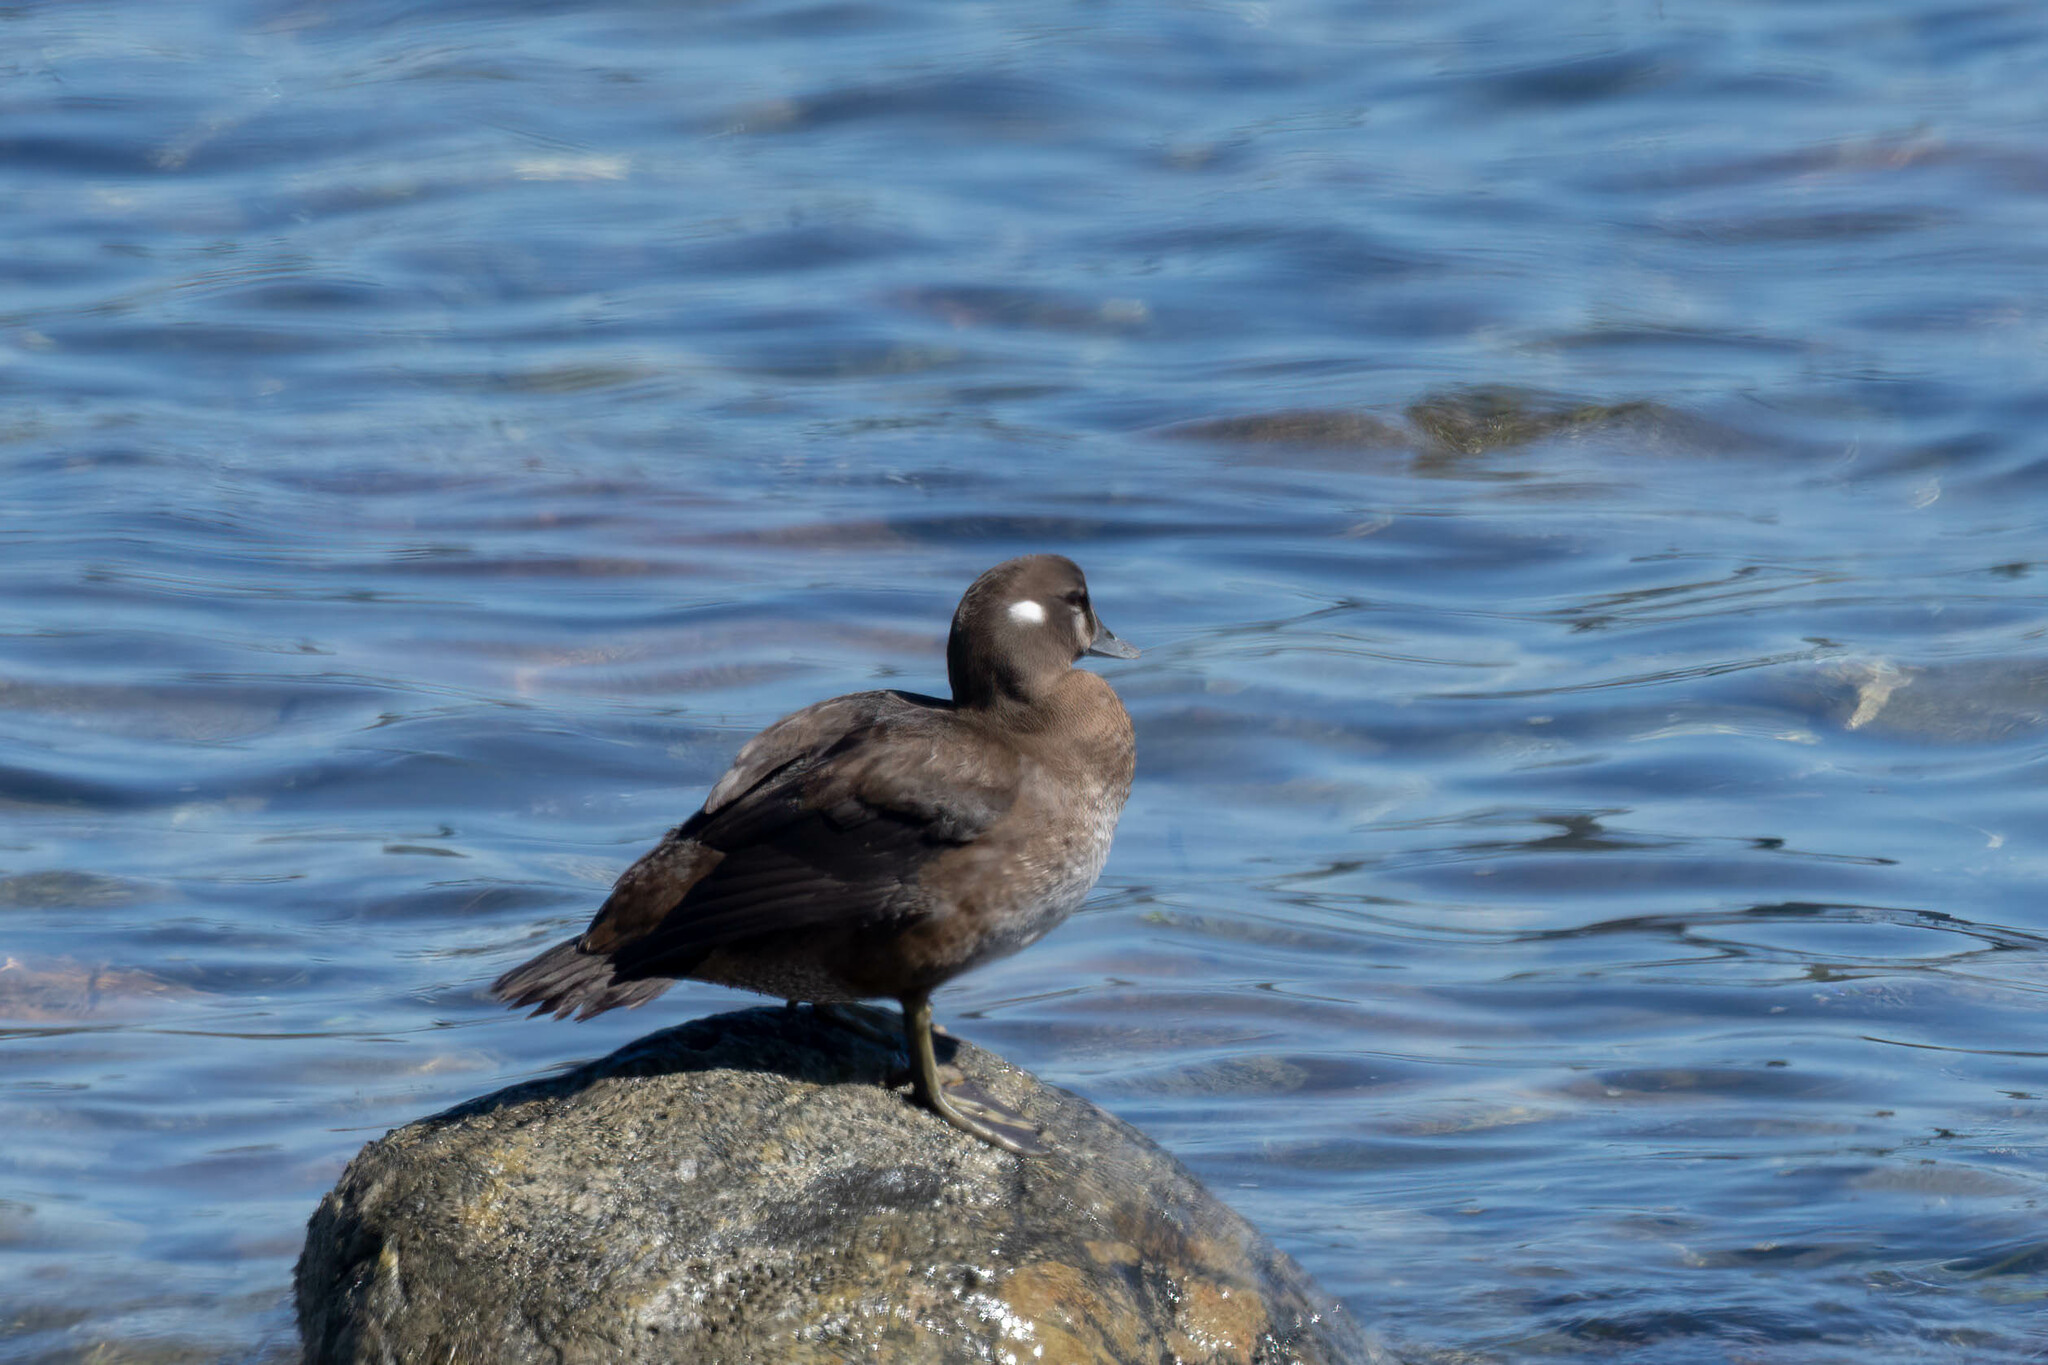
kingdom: Animalia
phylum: Chordata
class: Aves
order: Anseriformes
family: Anatidae
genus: Histrionicus
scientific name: Histrionicus histrionicus
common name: Harlequin duck
